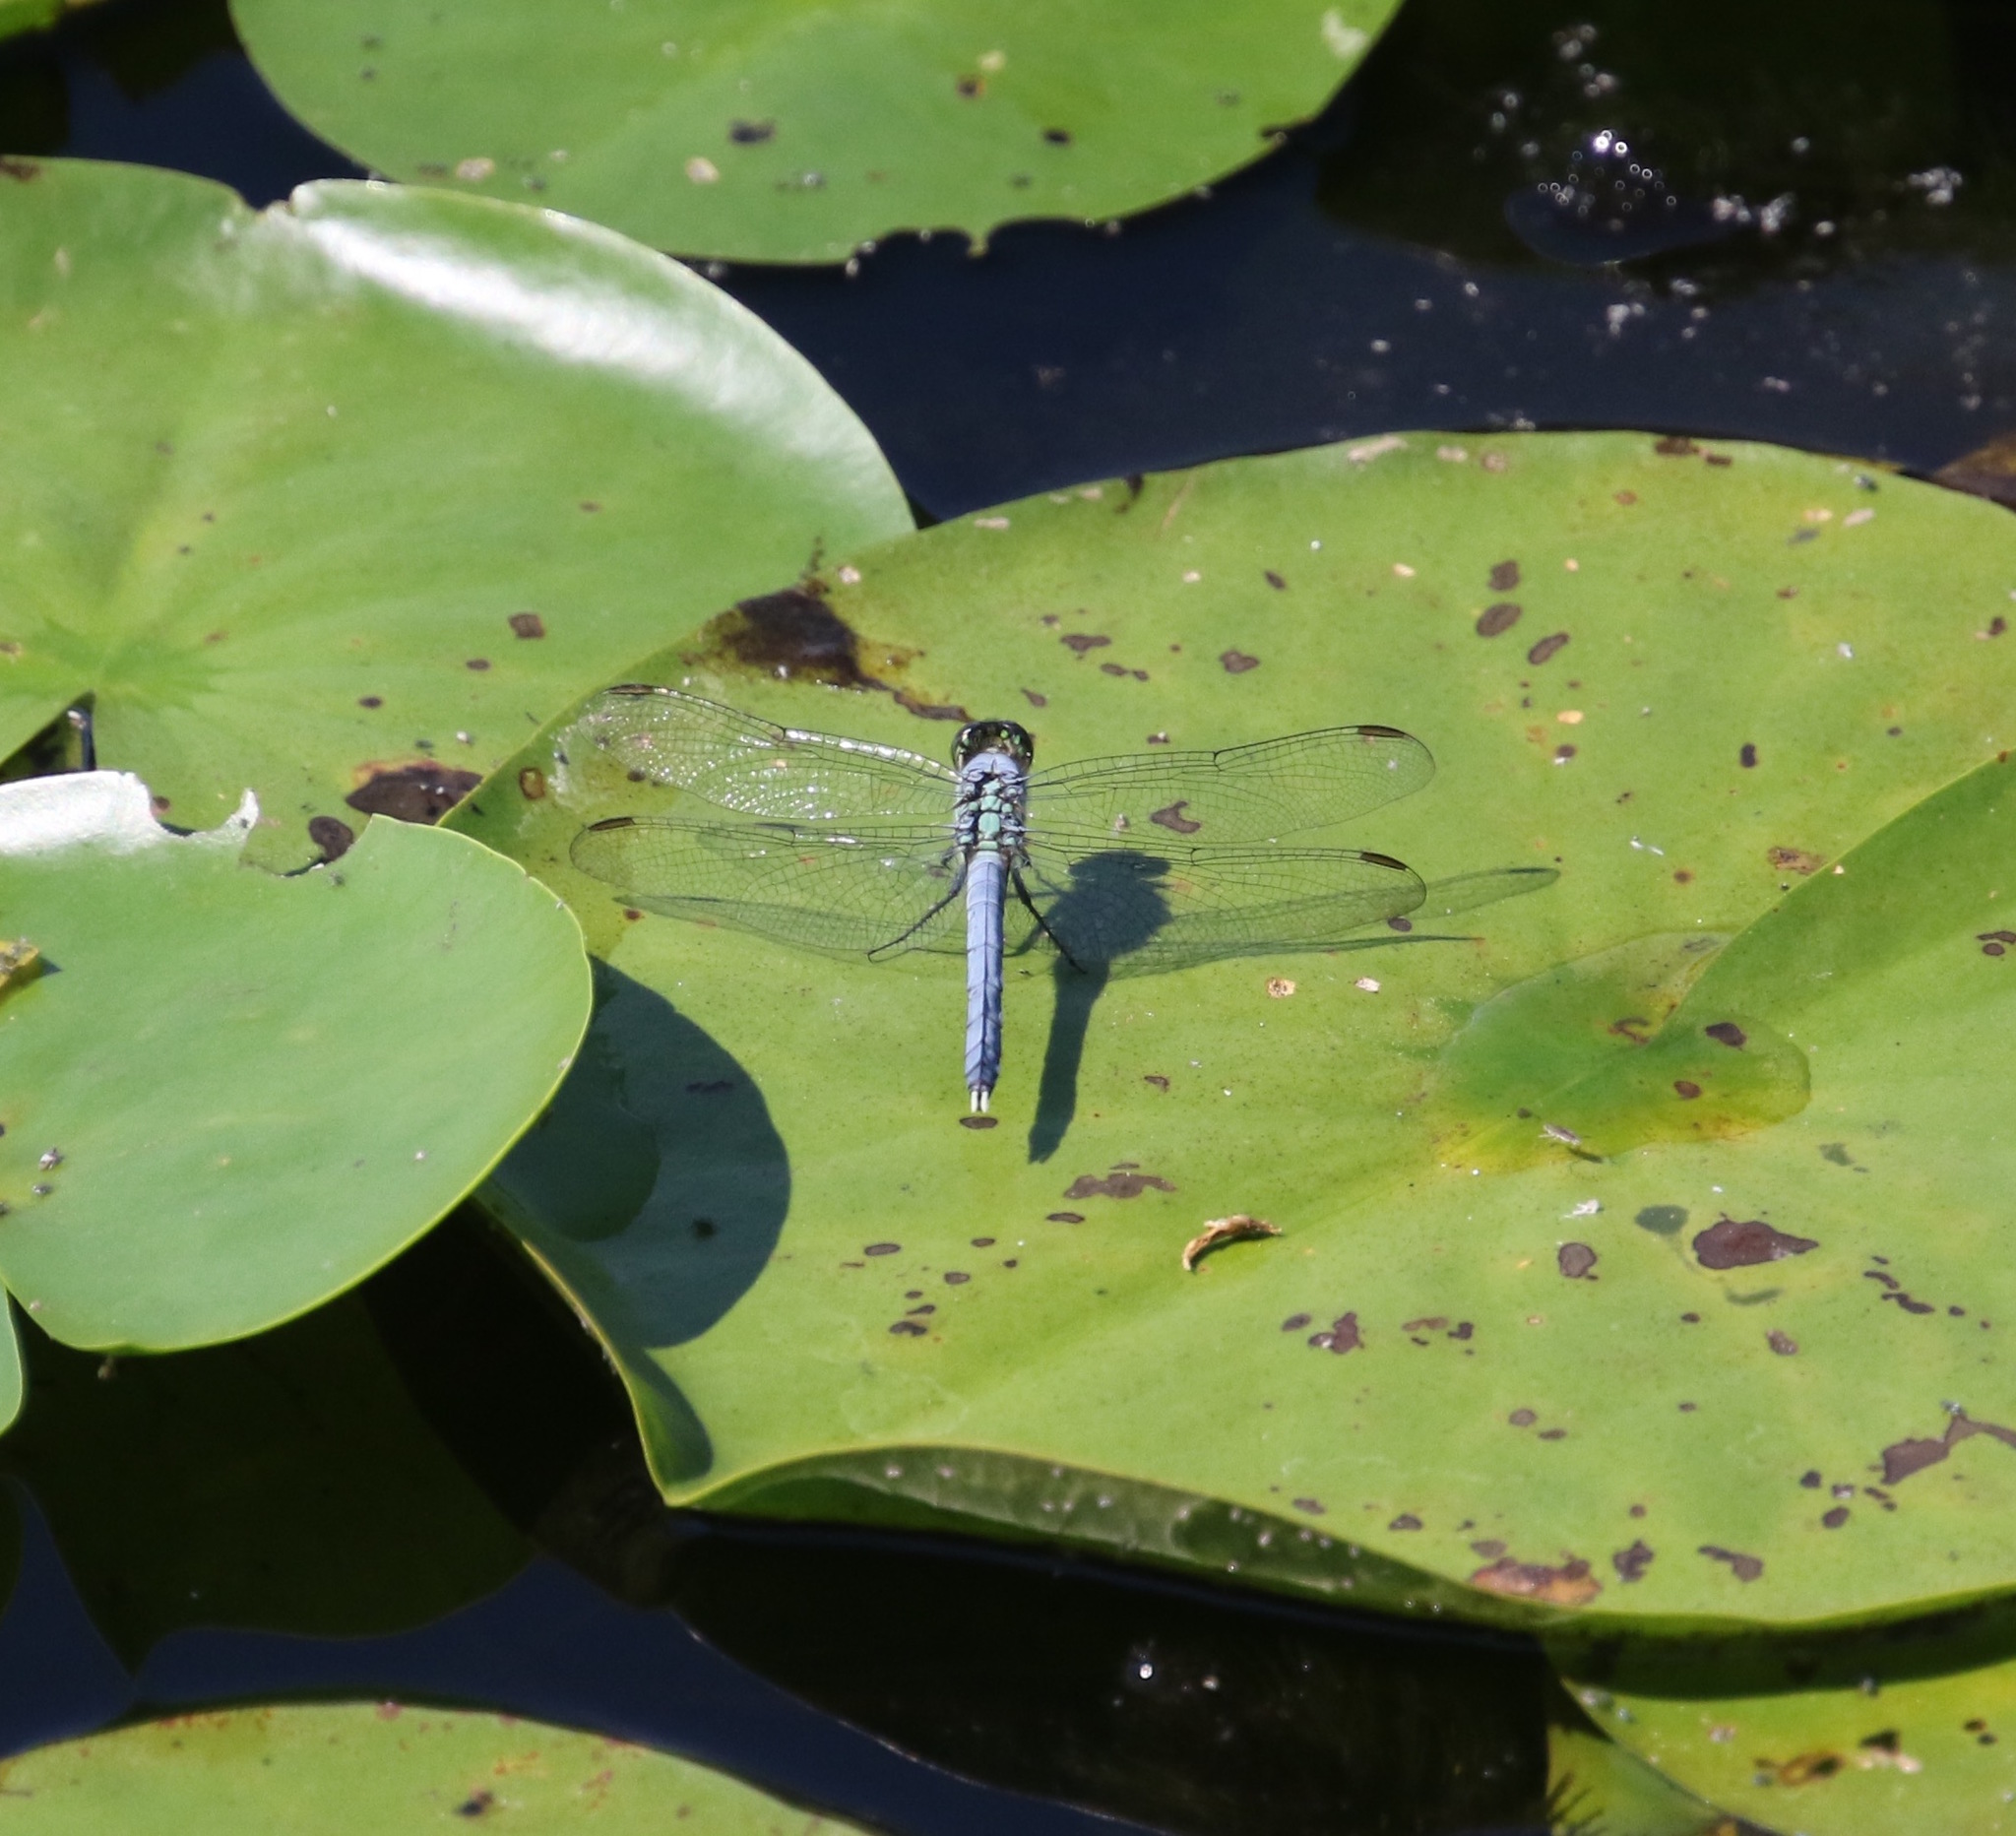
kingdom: Animalia
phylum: Arthropoda
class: Insecta
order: Odonata
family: Libellulidae
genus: Erythemis
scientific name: Erythemis simplicicollis
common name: Eastern pondhawk
